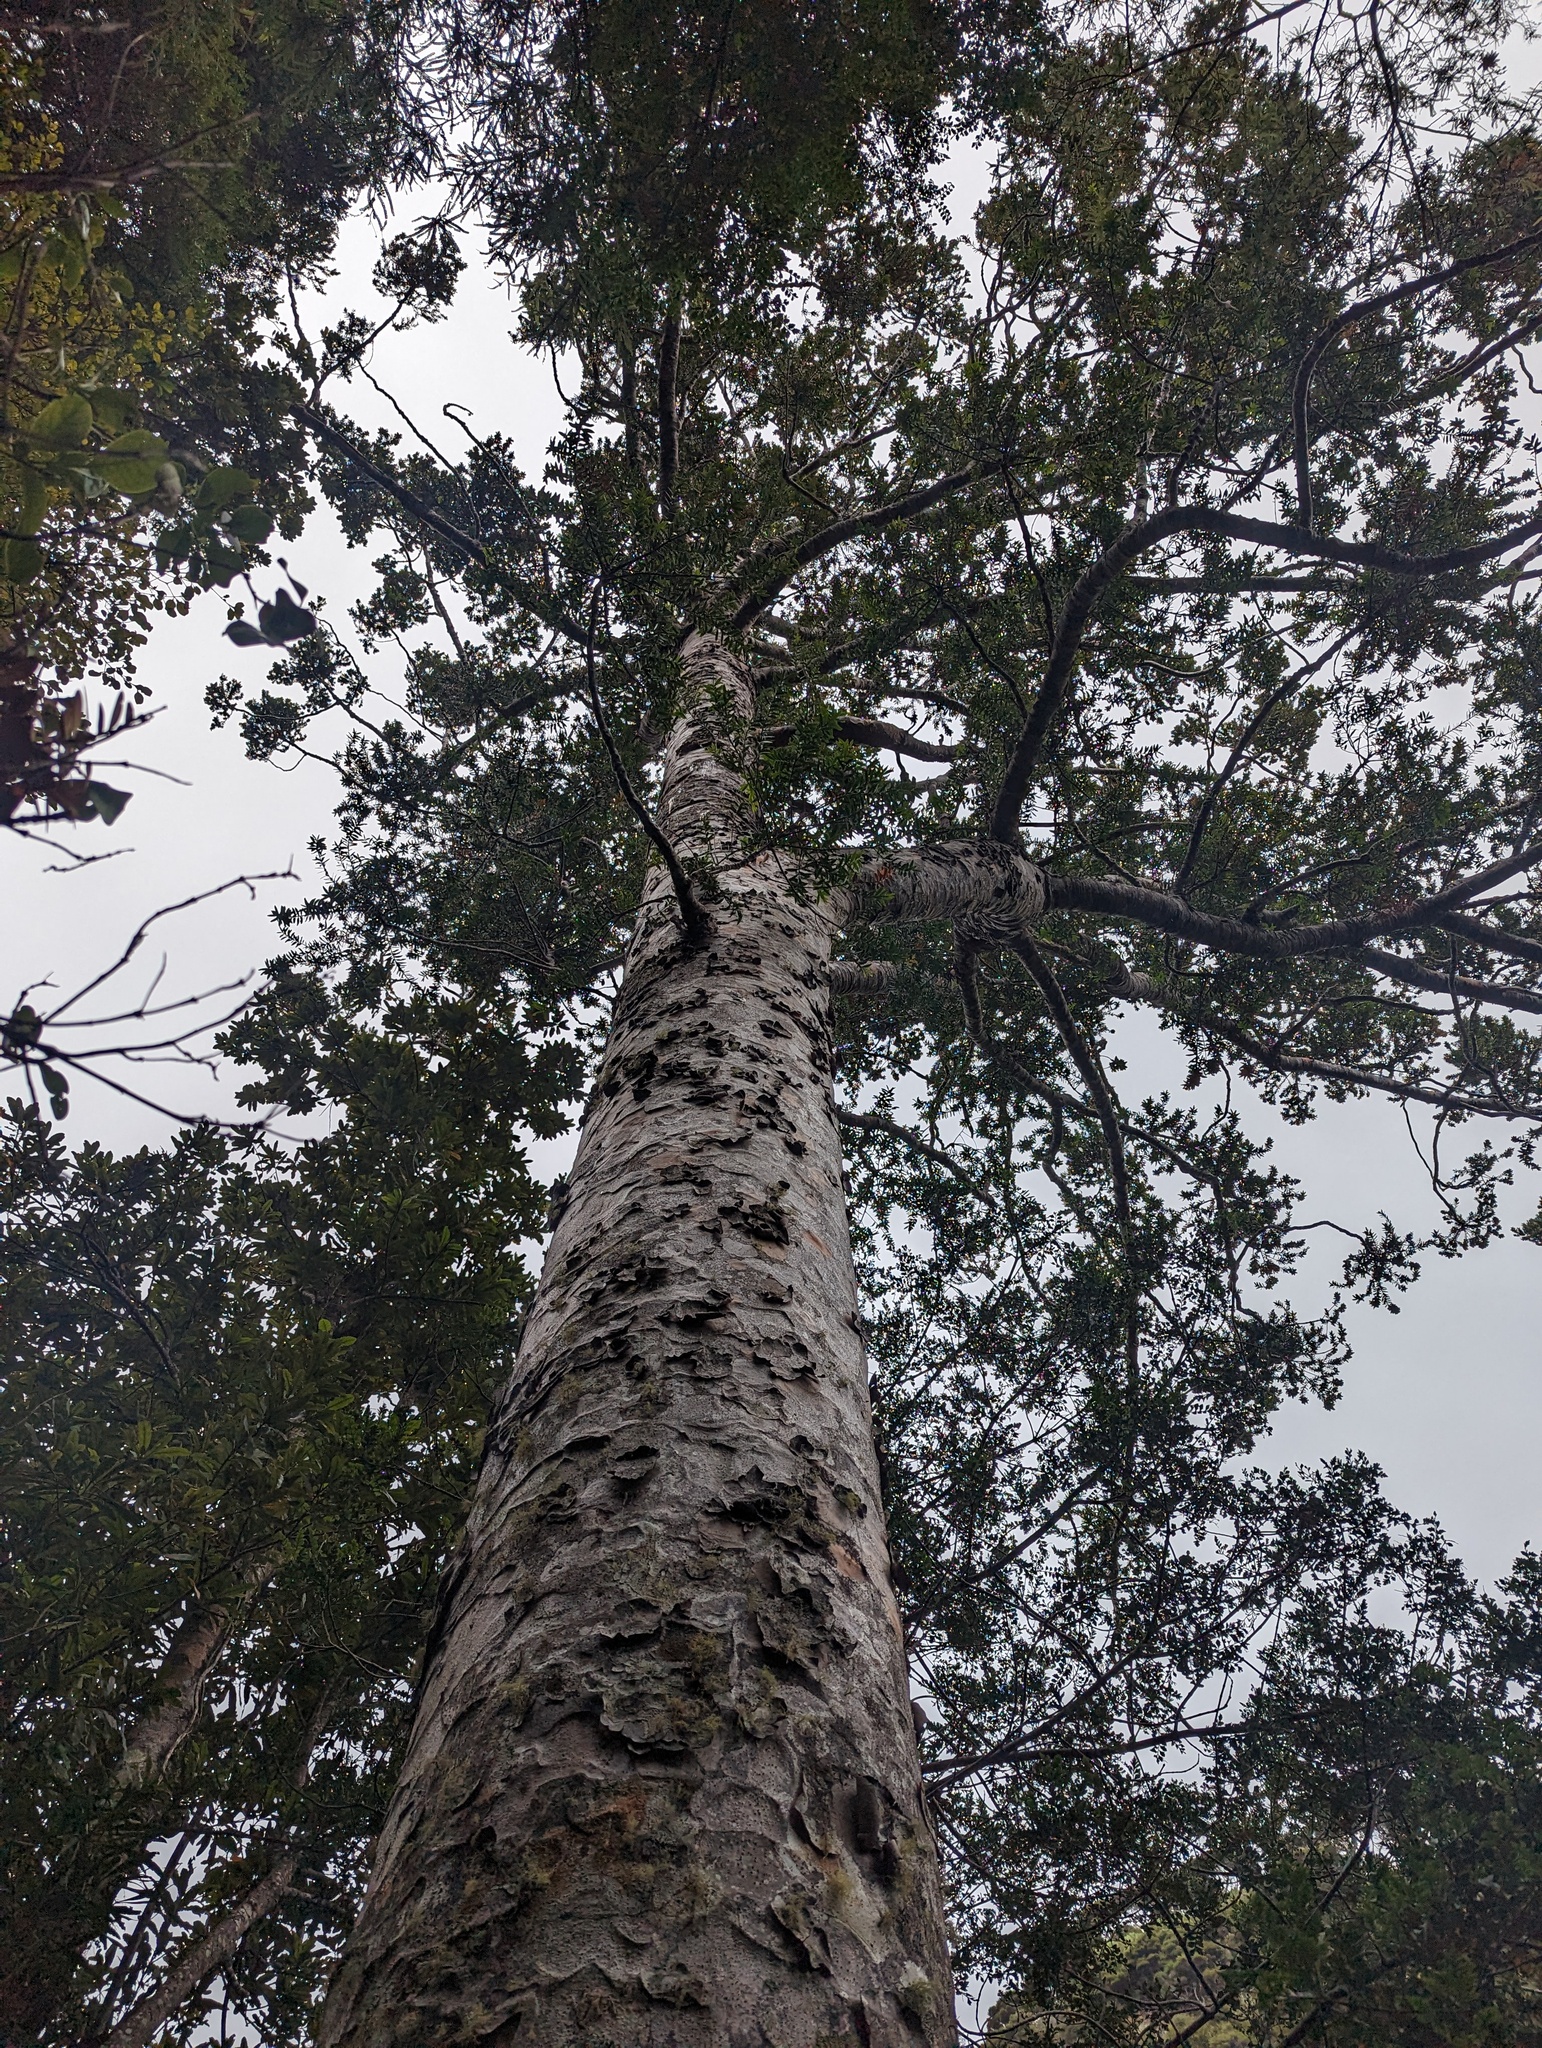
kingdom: Plantae
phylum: Tracheophyta
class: Pinopsida
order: Pinales
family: Araucariaceae
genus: Agathis
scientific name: Agathis australis
